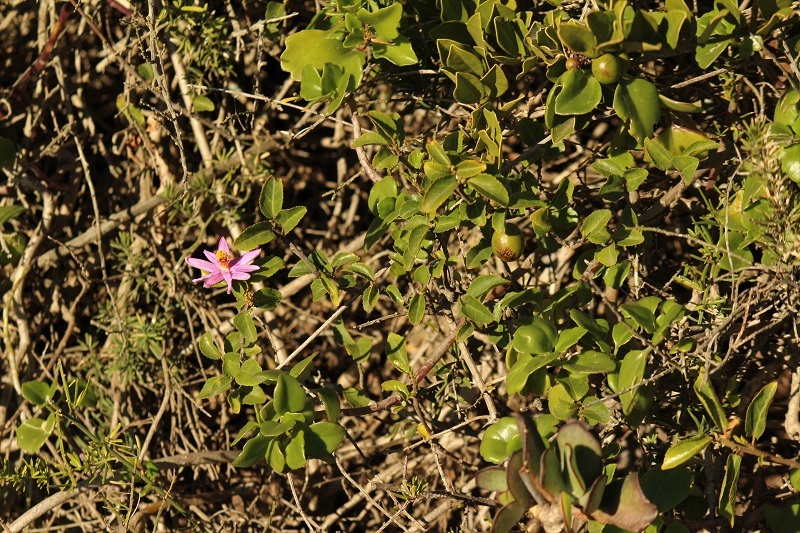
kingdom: Plantae
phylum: Tracheophyta
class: Magnoliopsida
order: Malvales
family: Malvaceae
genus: Grewia
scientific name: Grewia occidentalis
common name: Crossberry
